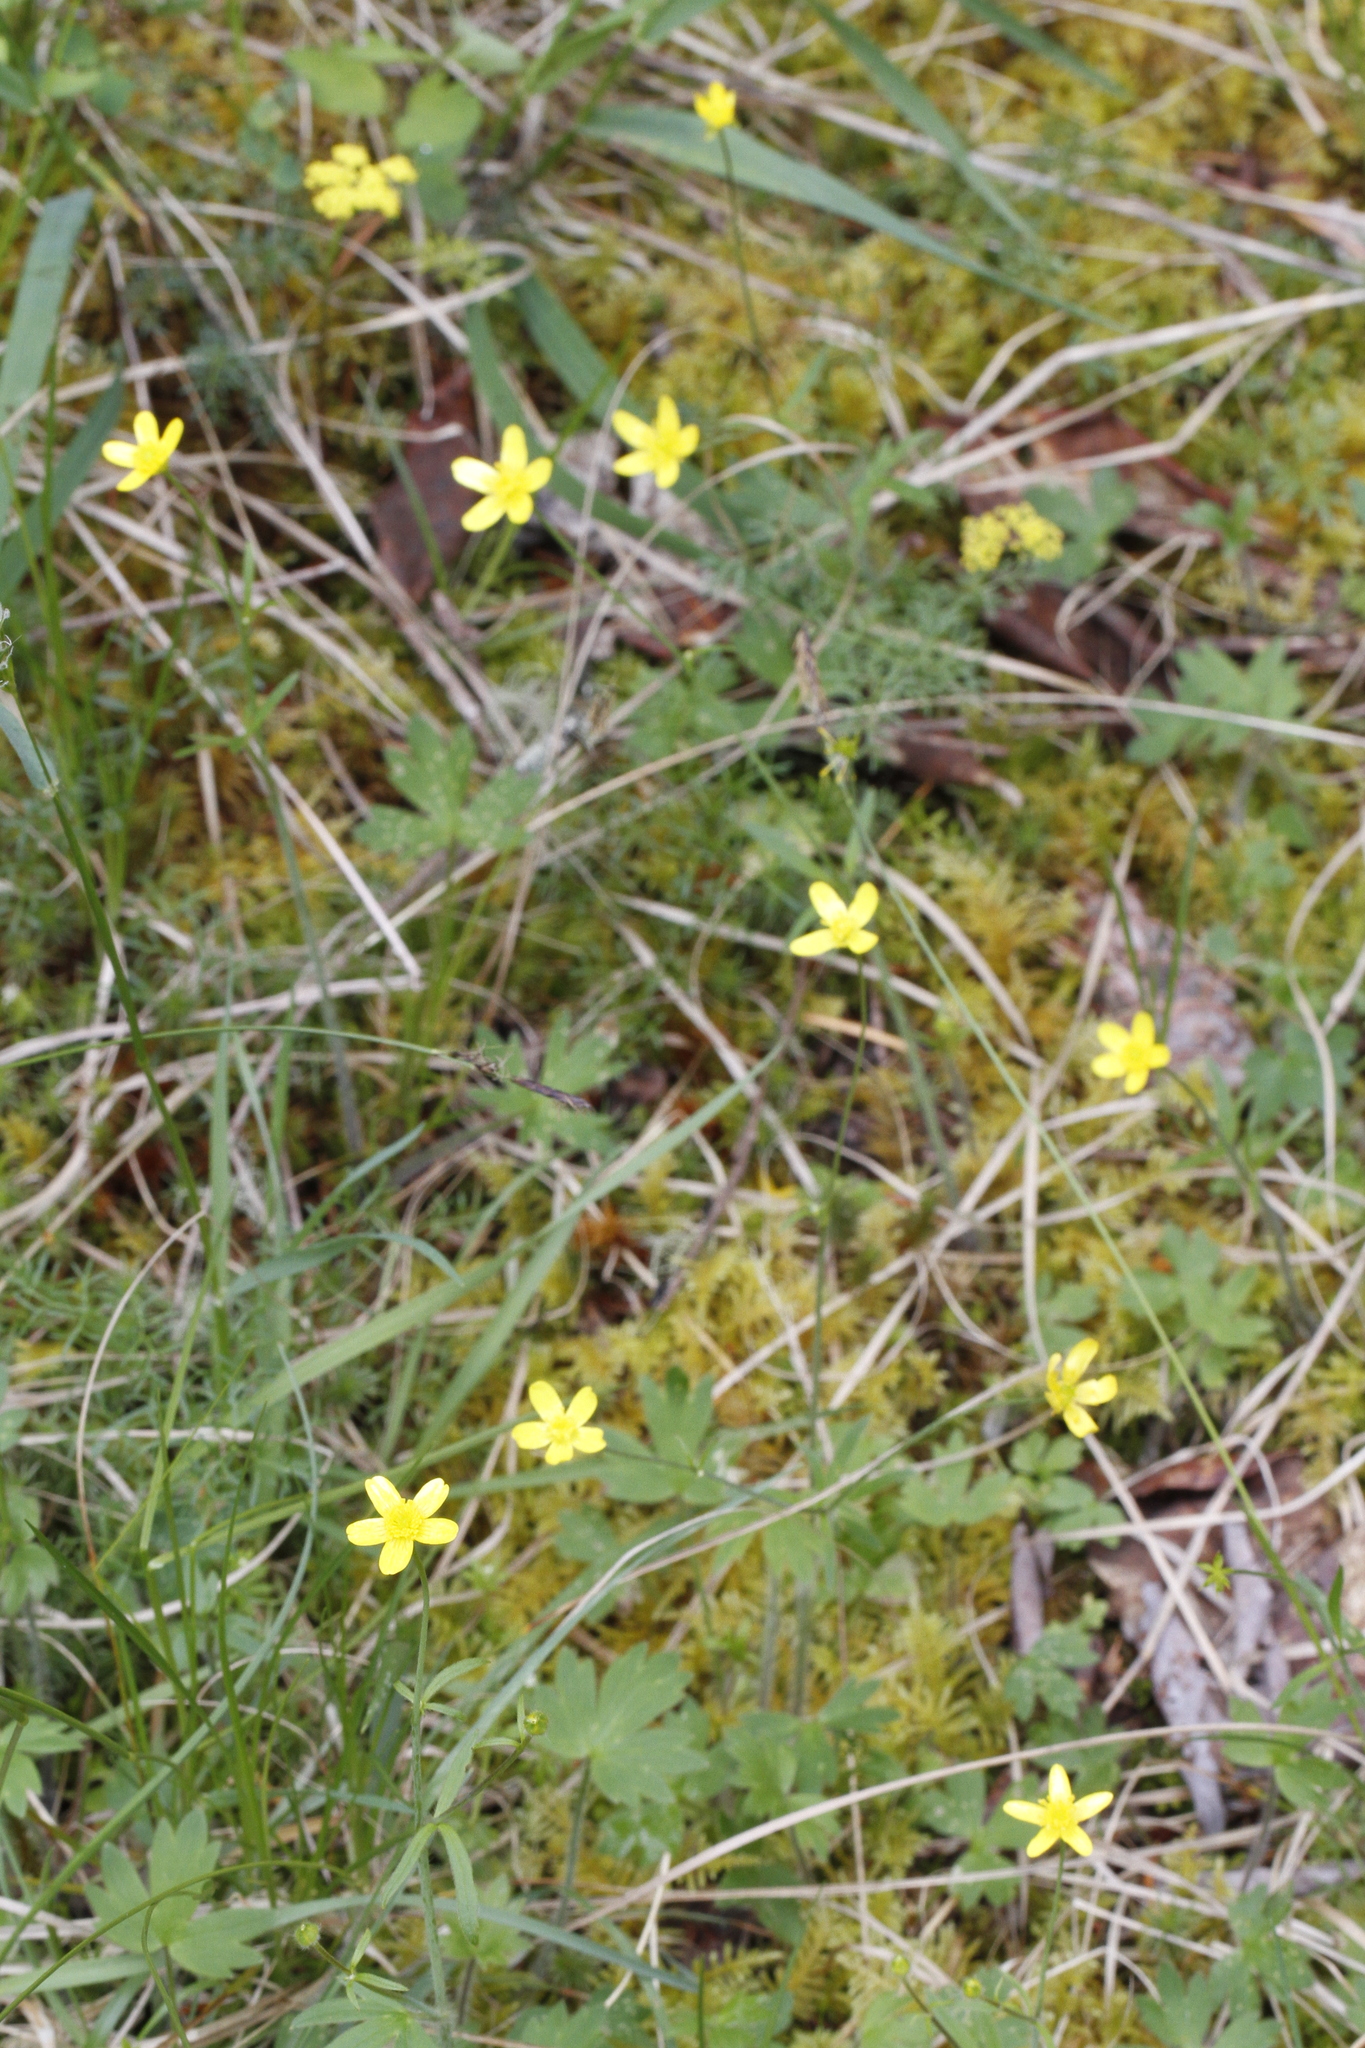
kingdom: Plantae
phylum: Tracheophyta
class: Magnoliopsida
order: Ranunculales
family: Ranunculaceae
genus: Ranunculus
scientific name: Ranunculus occidentalis
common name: Western buttercup
